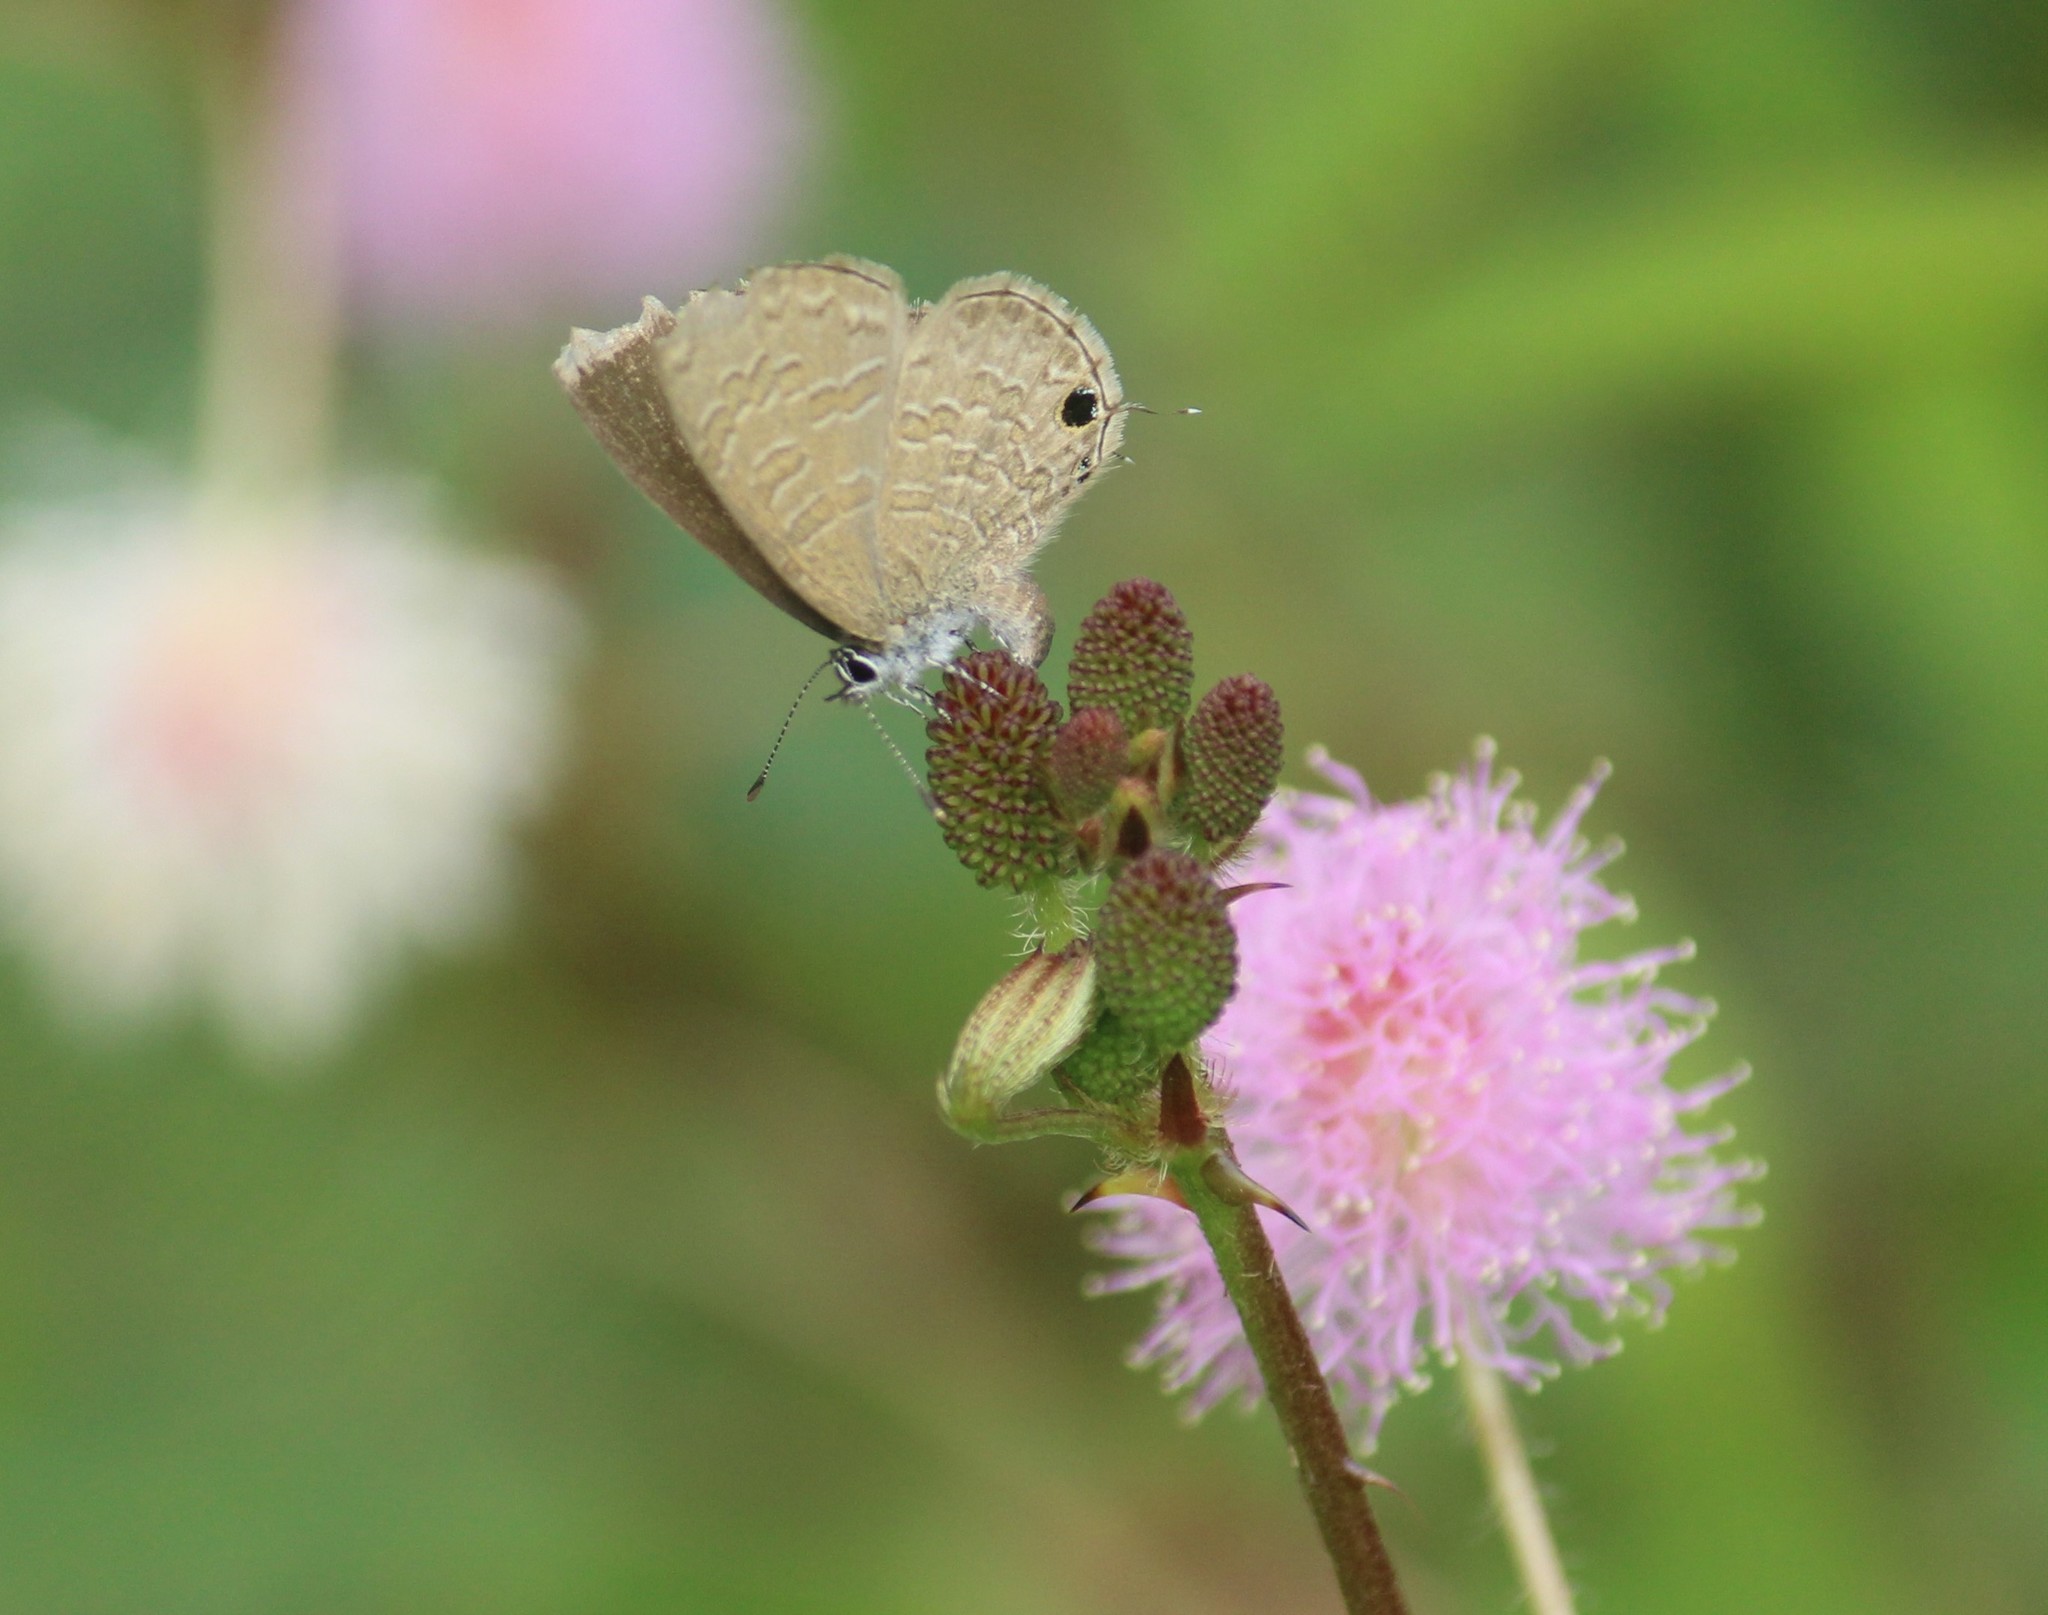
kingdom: Animalia
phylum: Arthropoda
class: Insecta
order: Lepidoptera
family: Lycaenidae
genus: Prosotas
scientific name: Prosotas nora
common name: Common line blue
